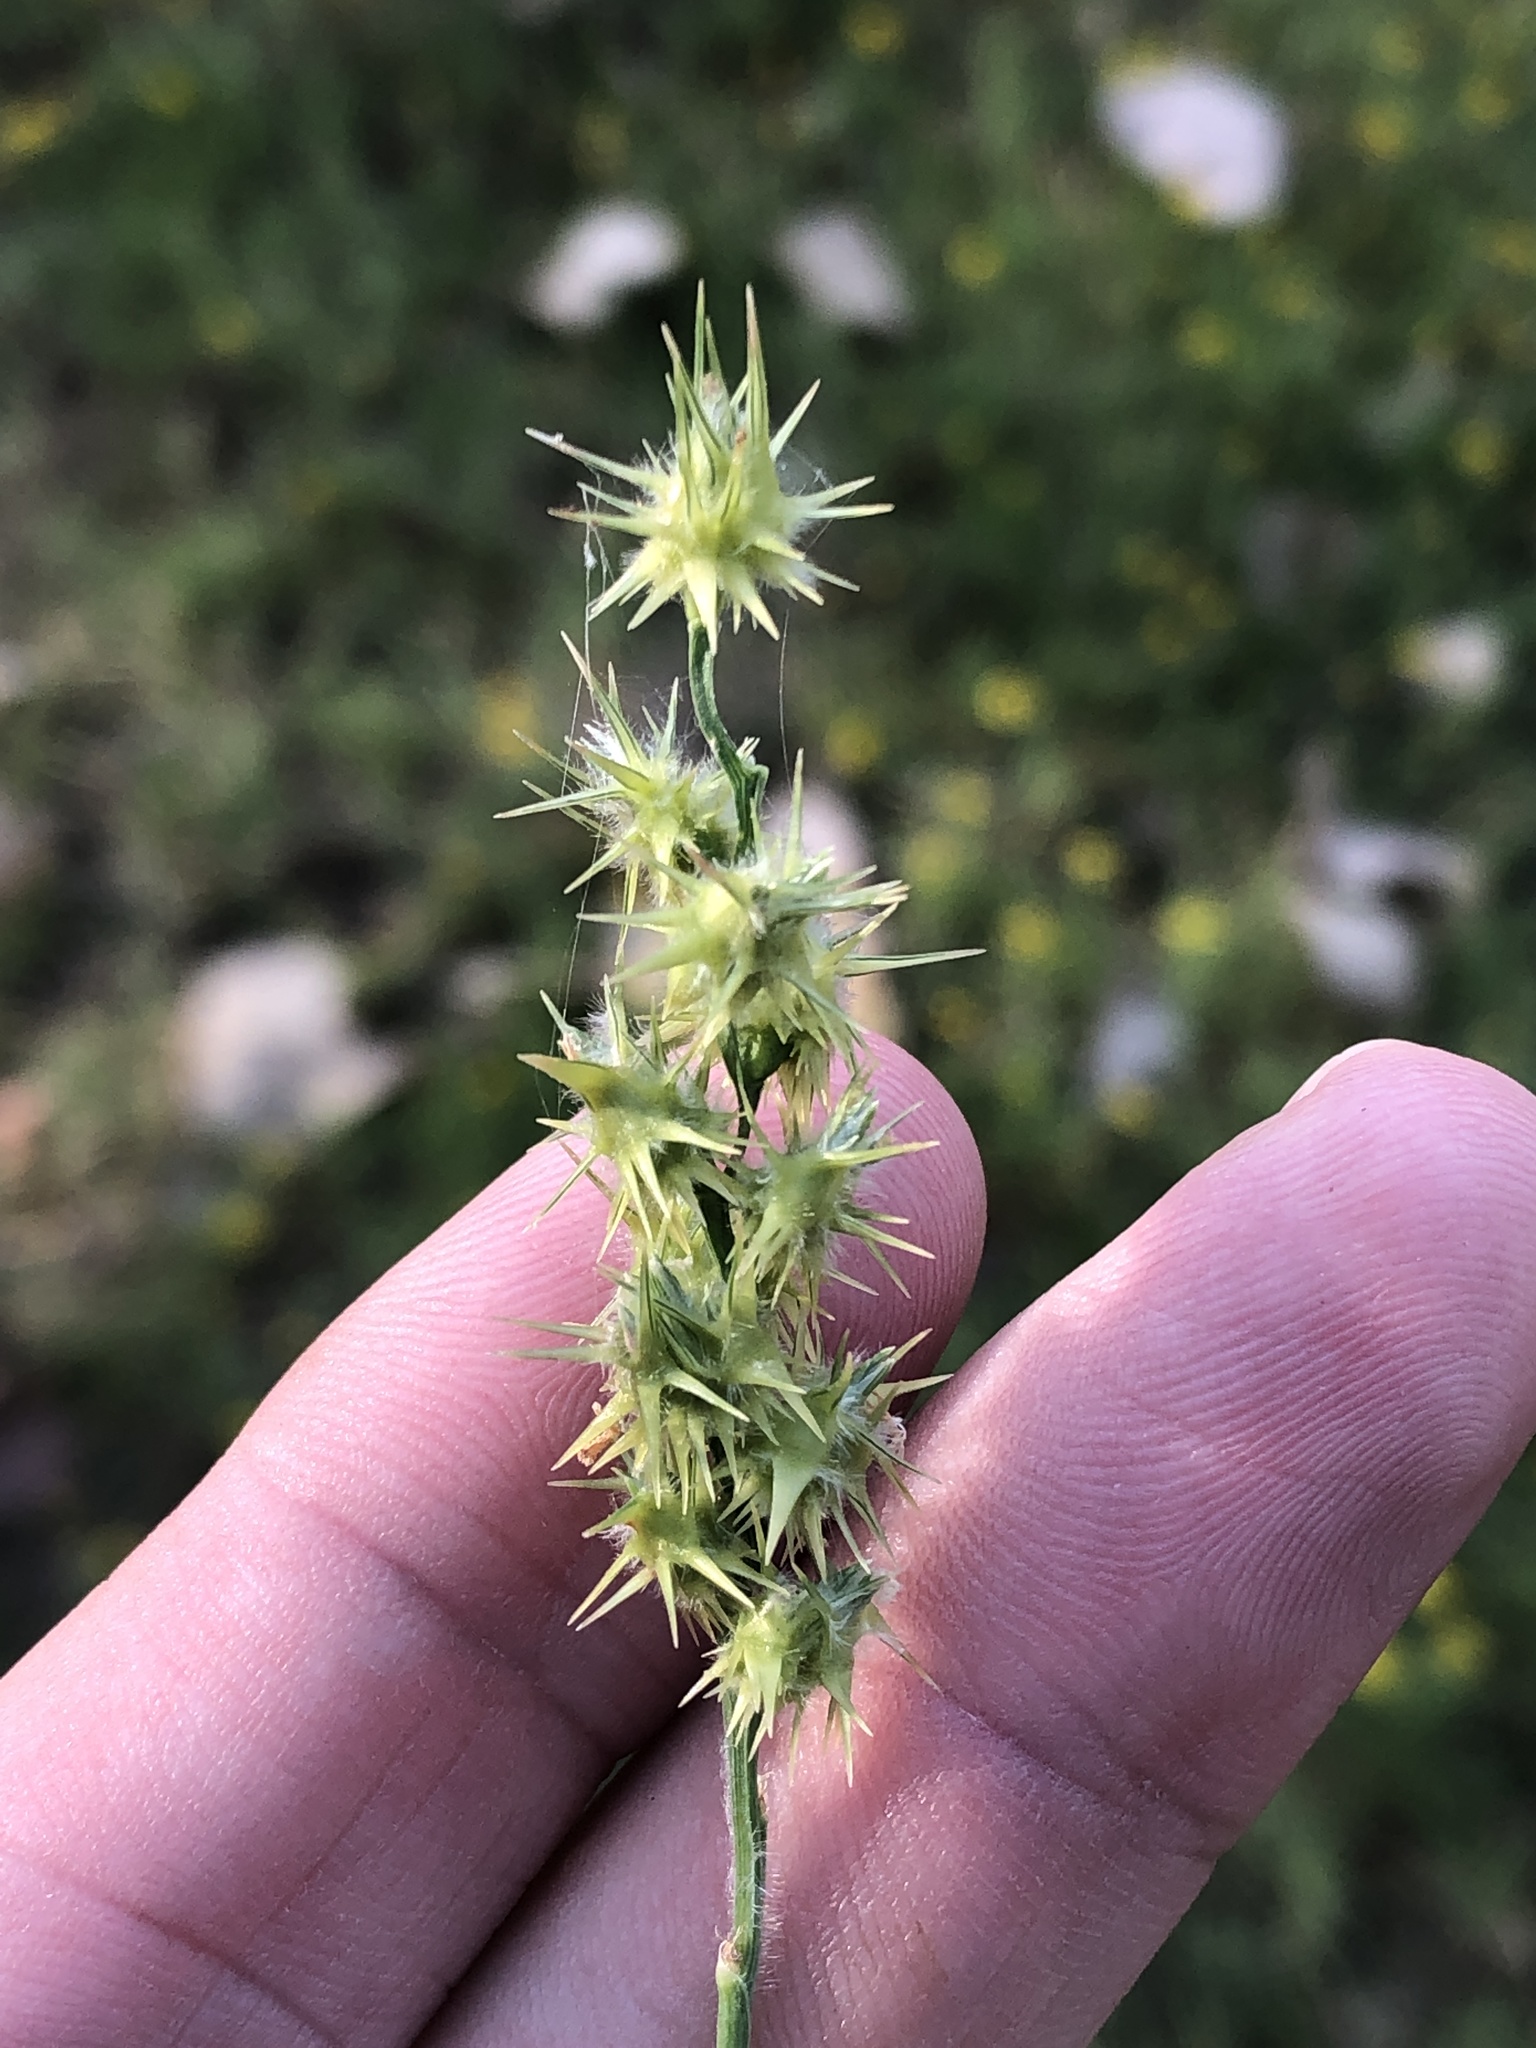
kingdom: Plantae
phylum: Tracheophyta
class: Liliopsida
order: Poales
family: Poaceae
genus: Cenchrus
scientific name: Cenchrus spinifex
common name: Coast sandbur
